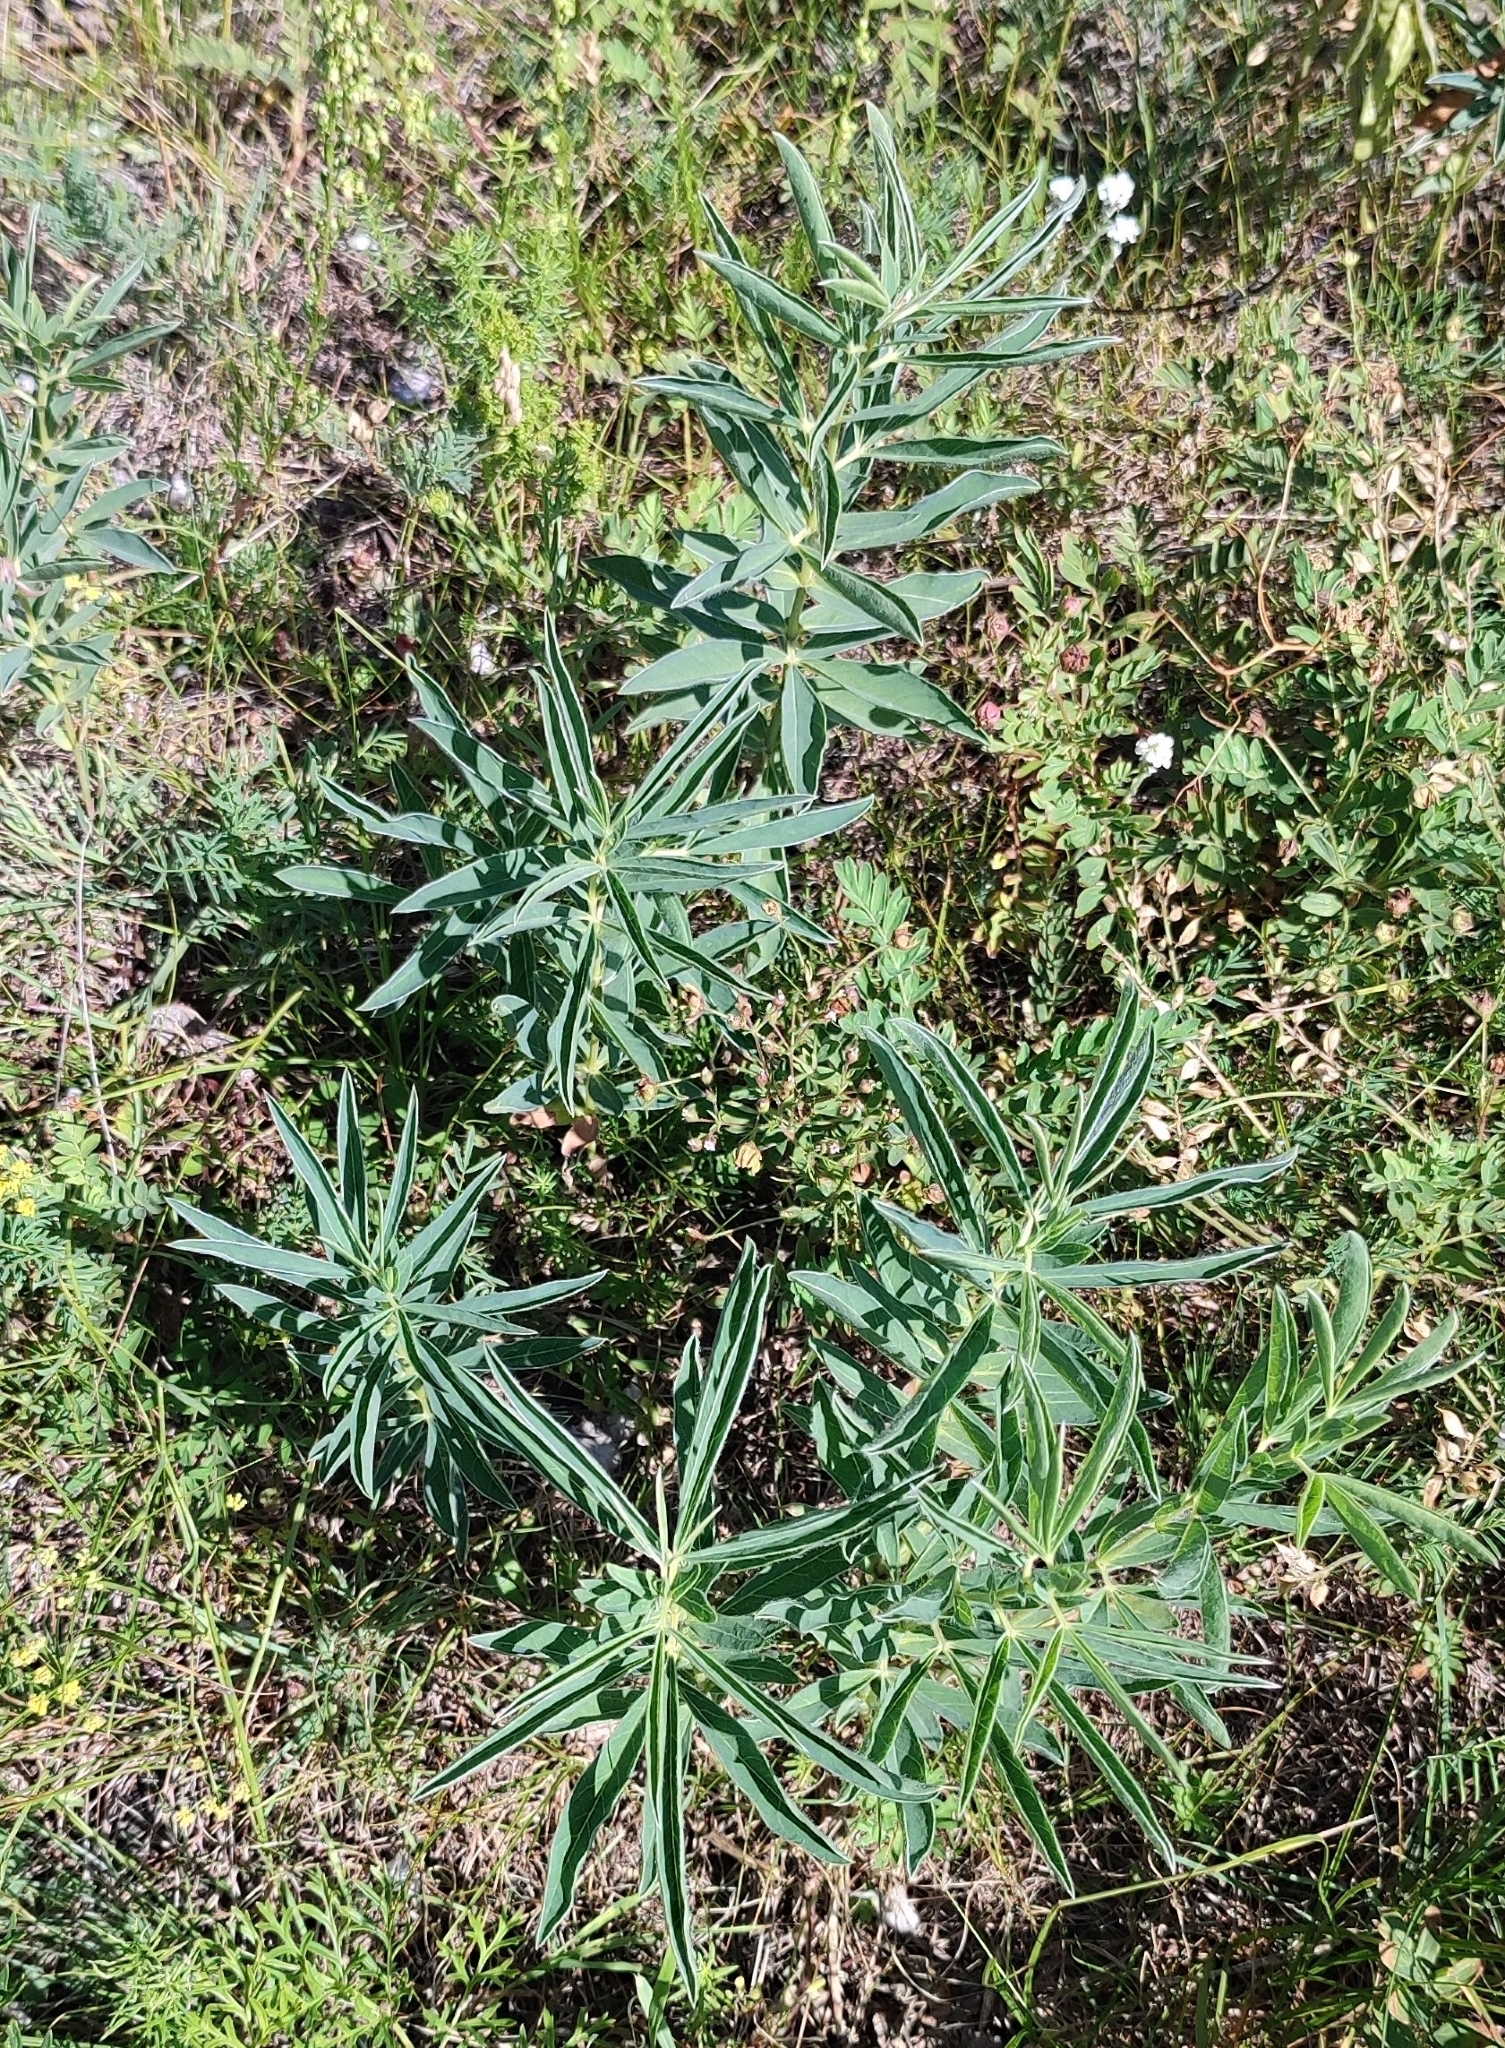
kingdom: Plantae
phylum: Tracheophyta
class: Magnoliopsida
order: Fabales
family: Fabaceae
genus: Thermopsis
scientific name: Thermopsis lanceolata
